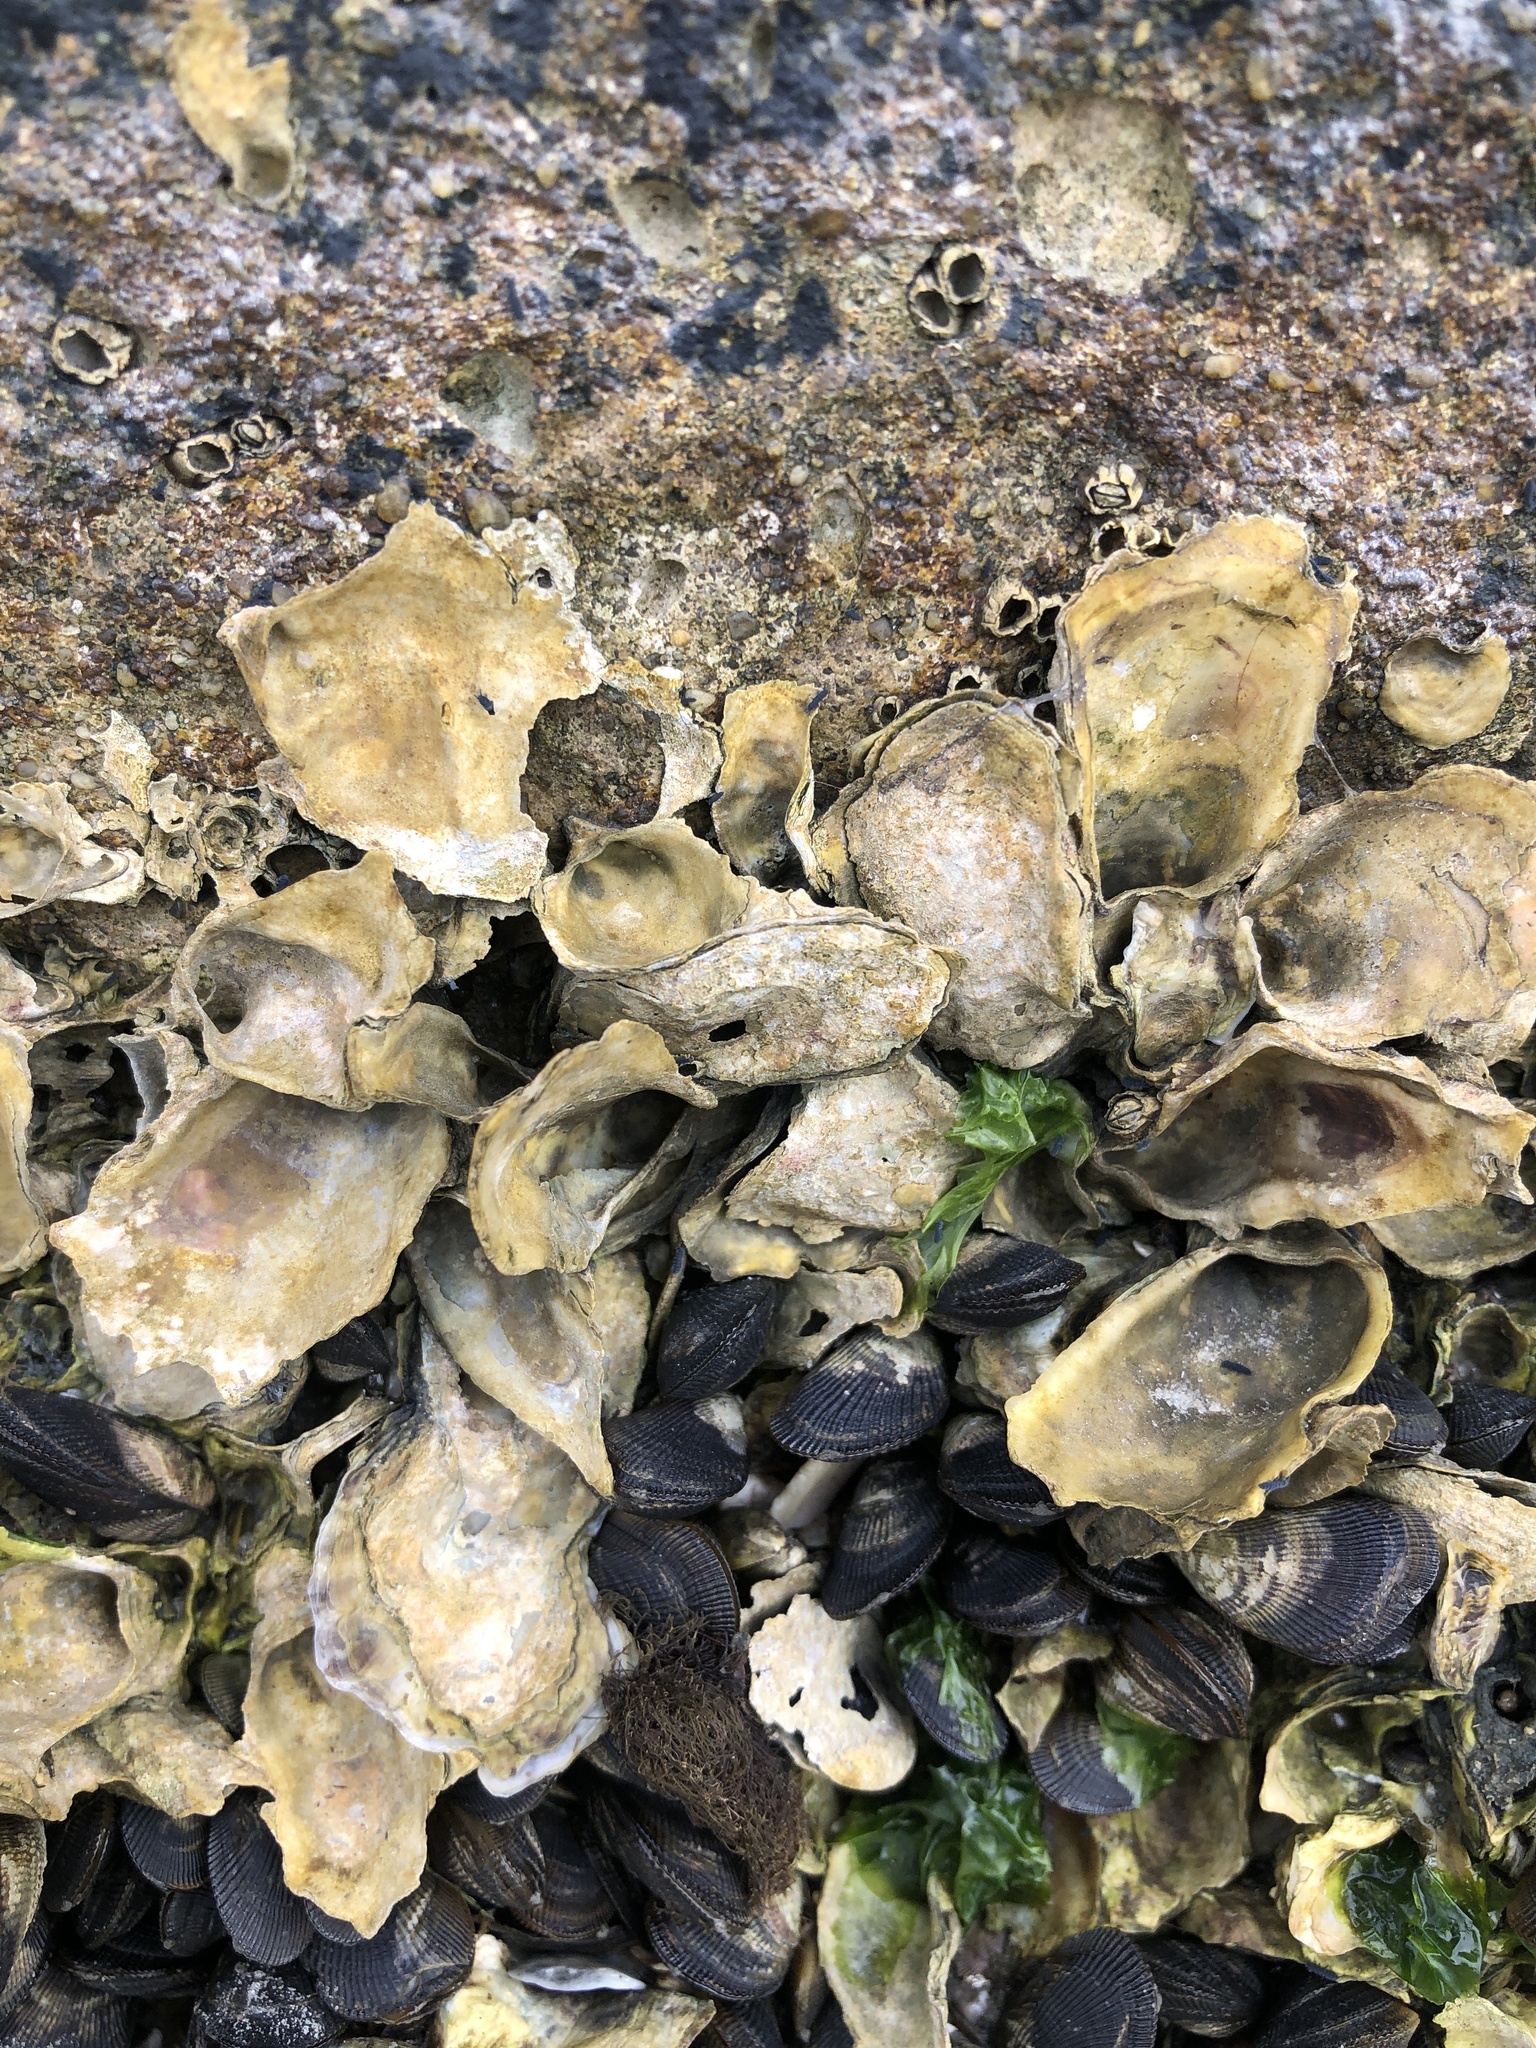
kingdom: Animalia
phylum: Mollusca
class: Bivalvia
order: Ostreida
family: Ostreidae
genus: Crassostrea
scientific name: Crassostrea virginica
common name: American oyster
